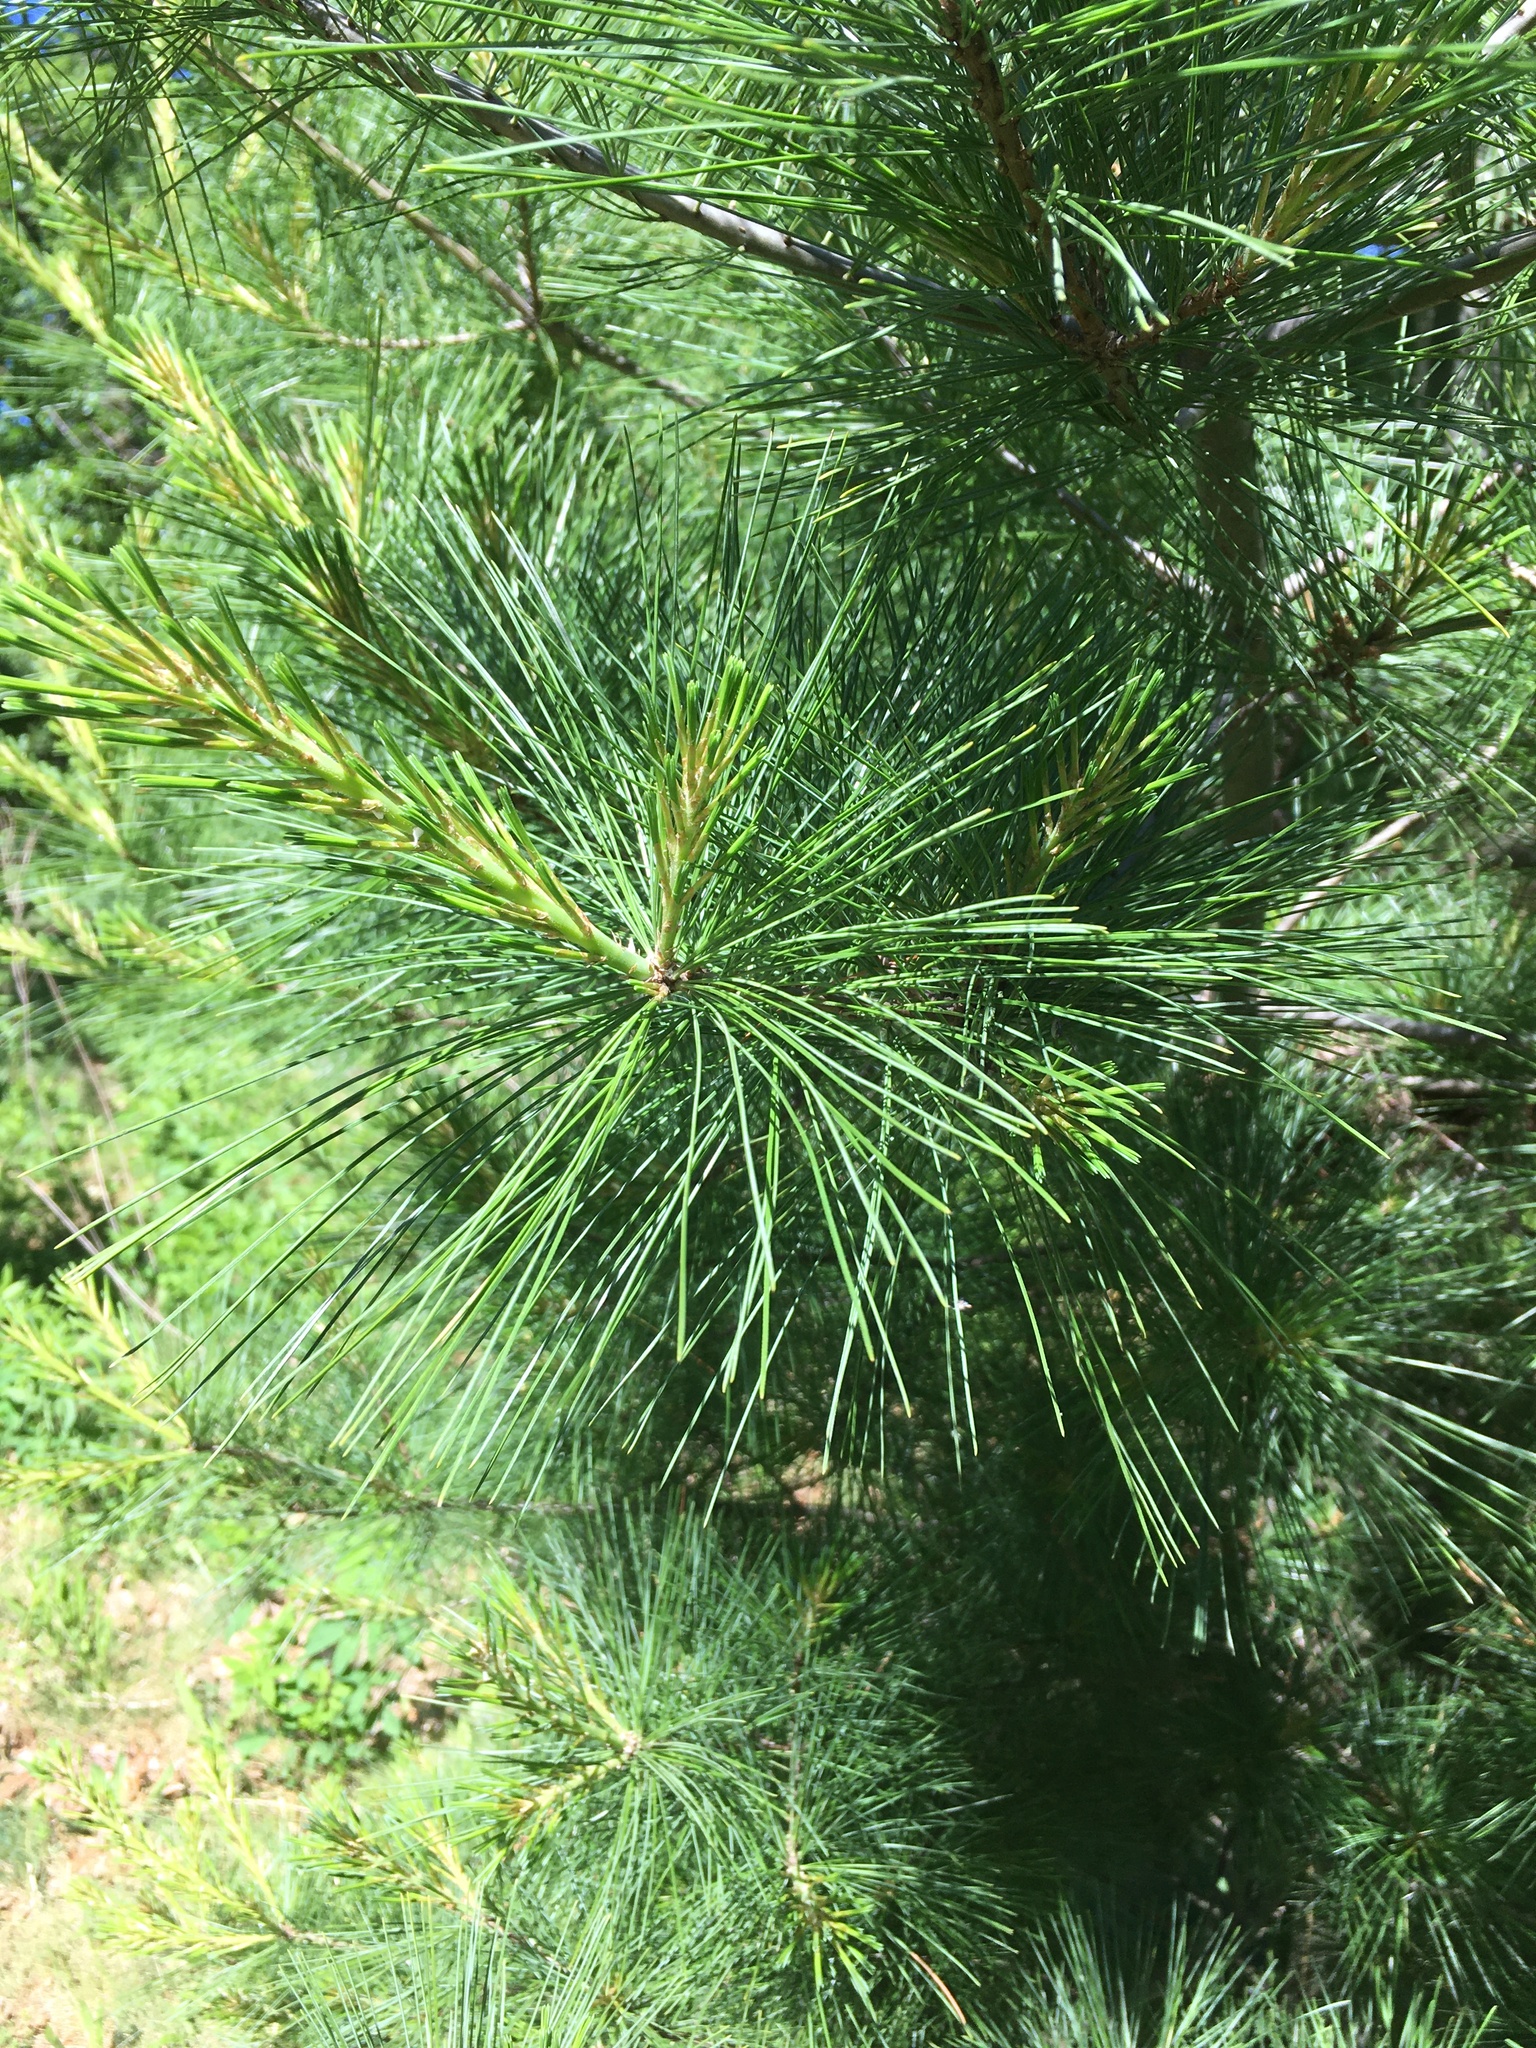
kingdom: Plantae
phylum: Tracheophyta
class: Pinopsida
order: Pinales
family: Pinaceae
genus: Pinus
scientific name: Pinus strobus
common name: Weymouth pine
